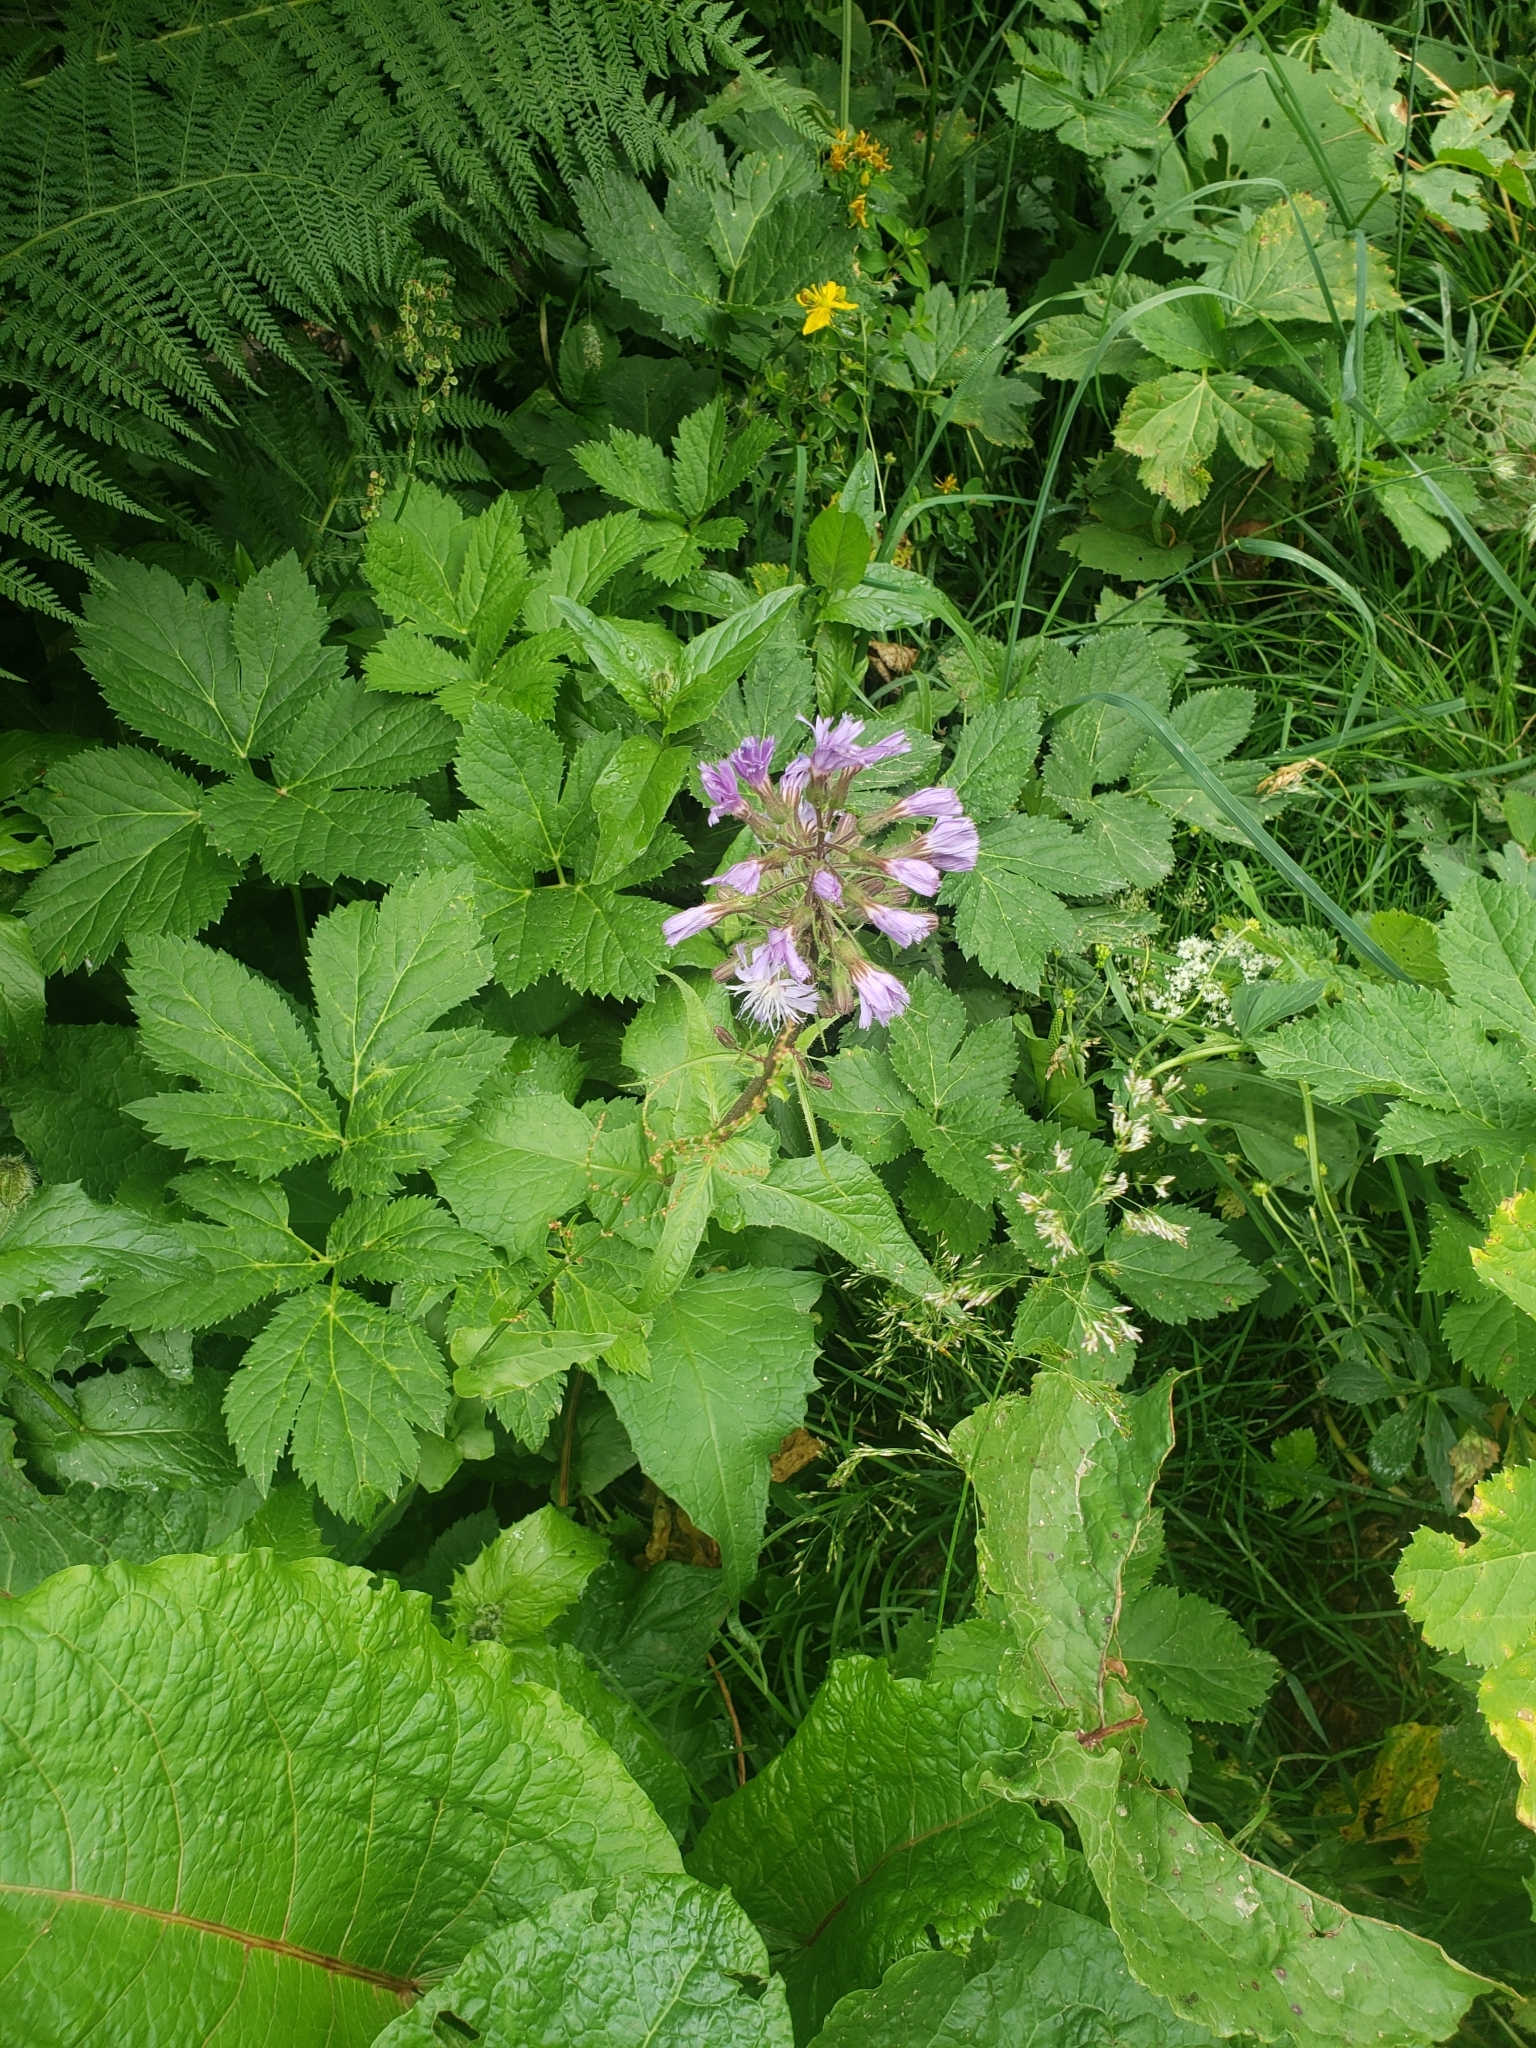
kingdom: Plantae
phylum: Tracheophyta
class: Magnoliopsida
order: Asterales
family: Asteraceae
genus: Cicerbita
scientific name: Cicerbita alpina
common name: Alpine blue-sow-thistle
